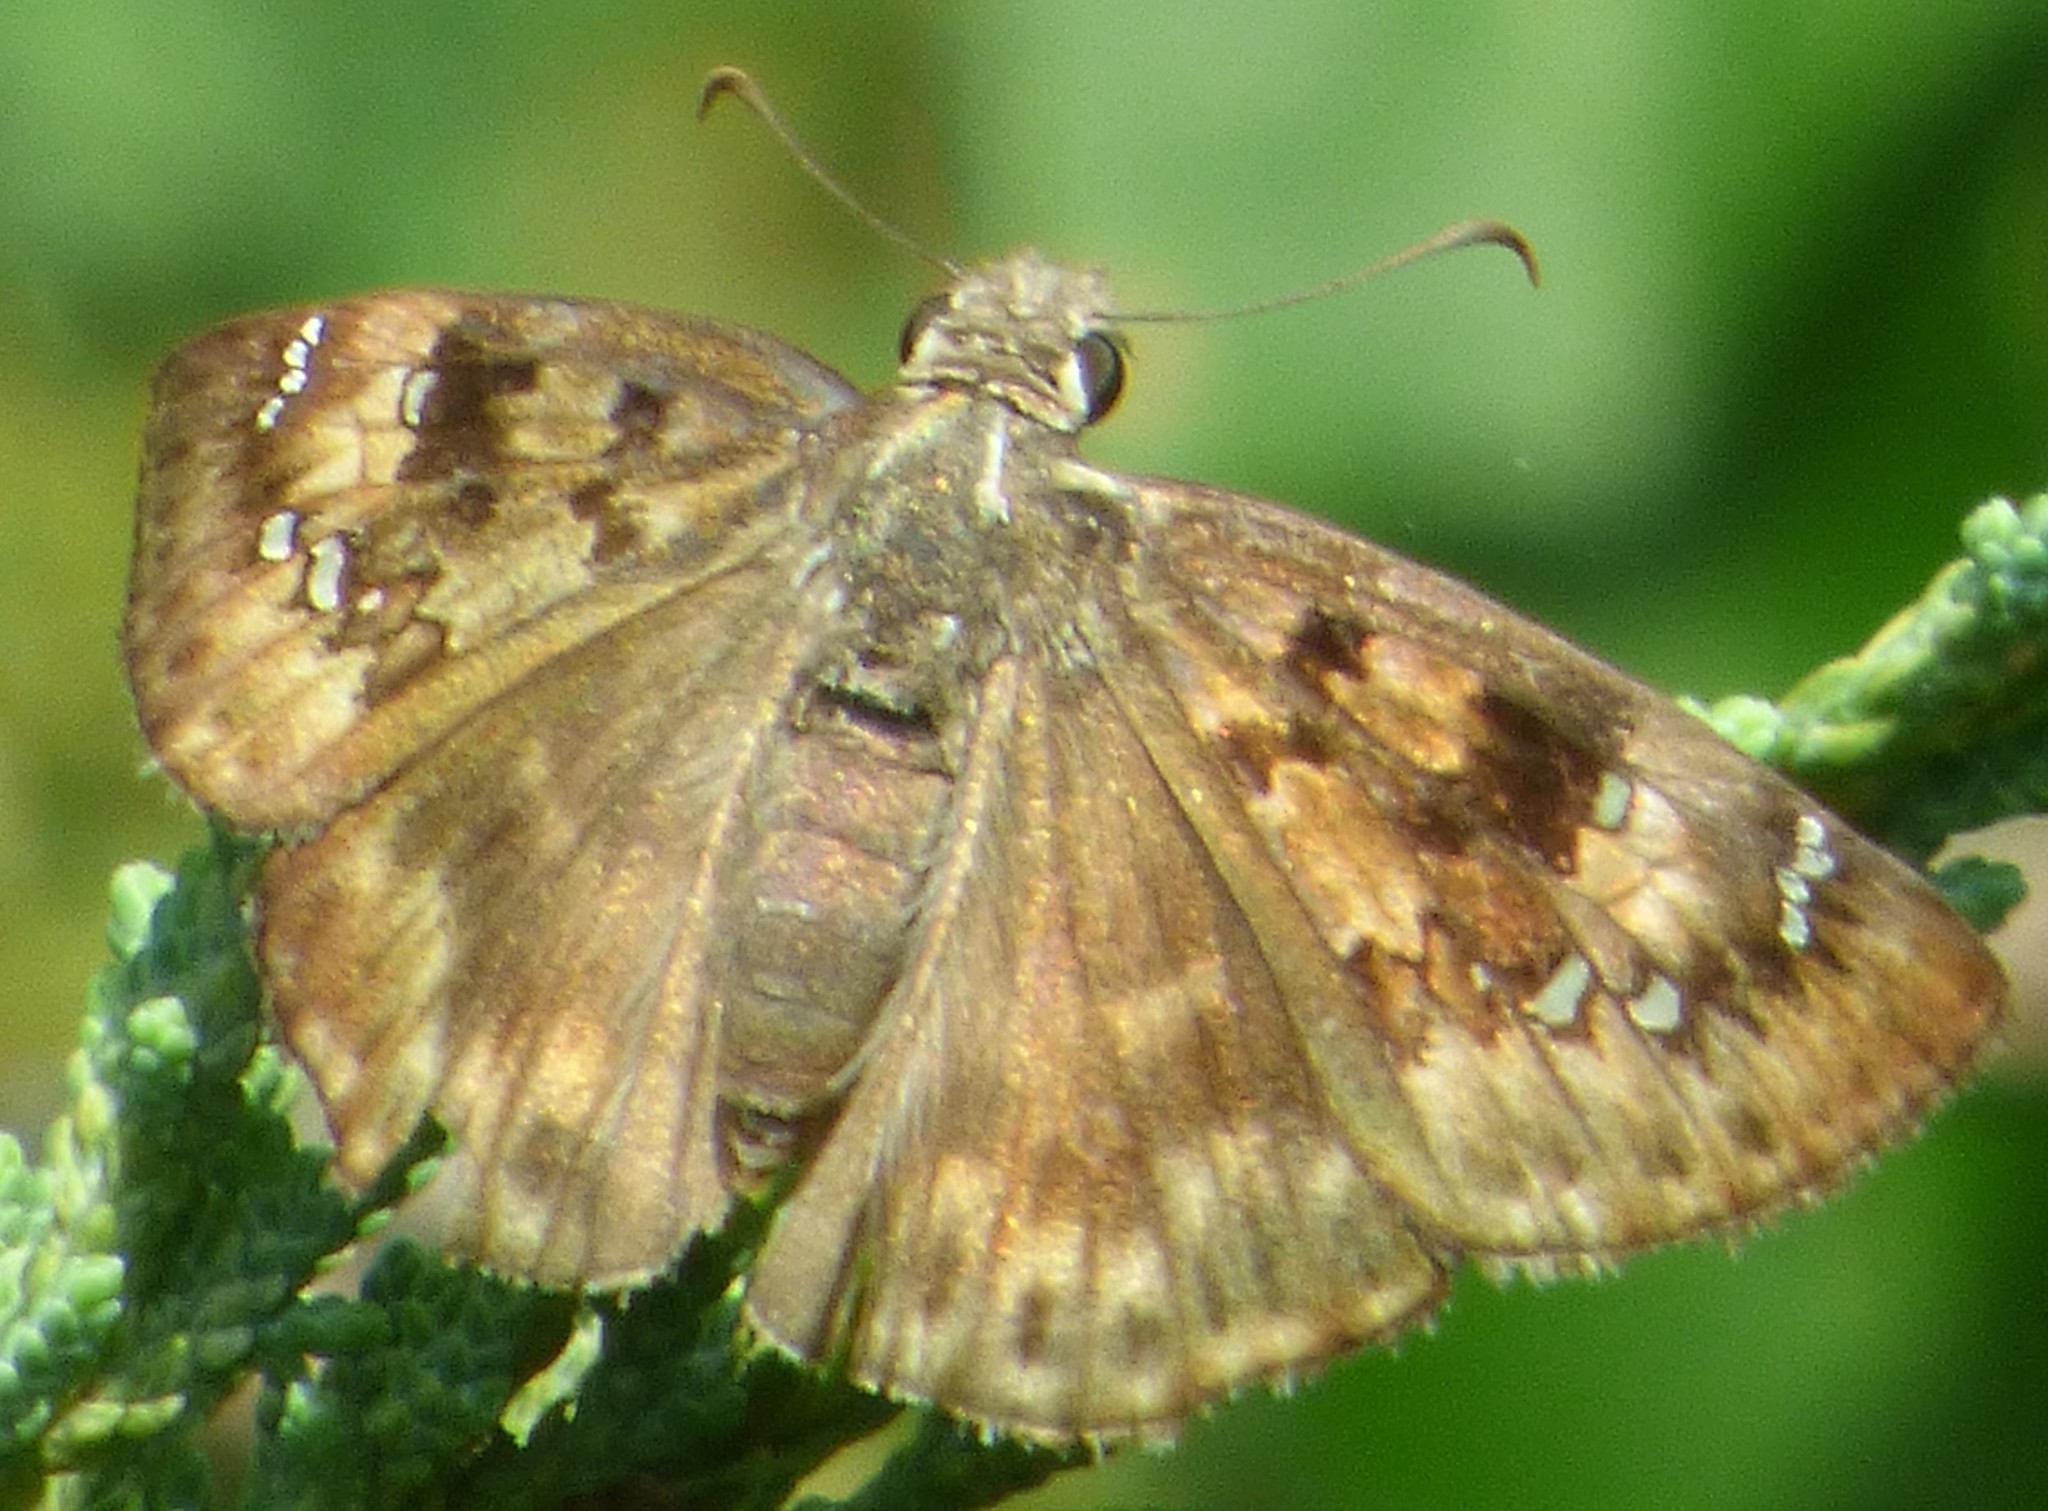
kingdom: Animalia
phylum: Arthropoda
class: Insecta
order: Lepidoptera
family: Hesperiidae
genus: Erynnis
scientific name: Erynnis horatius
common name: Horace's duskywing
